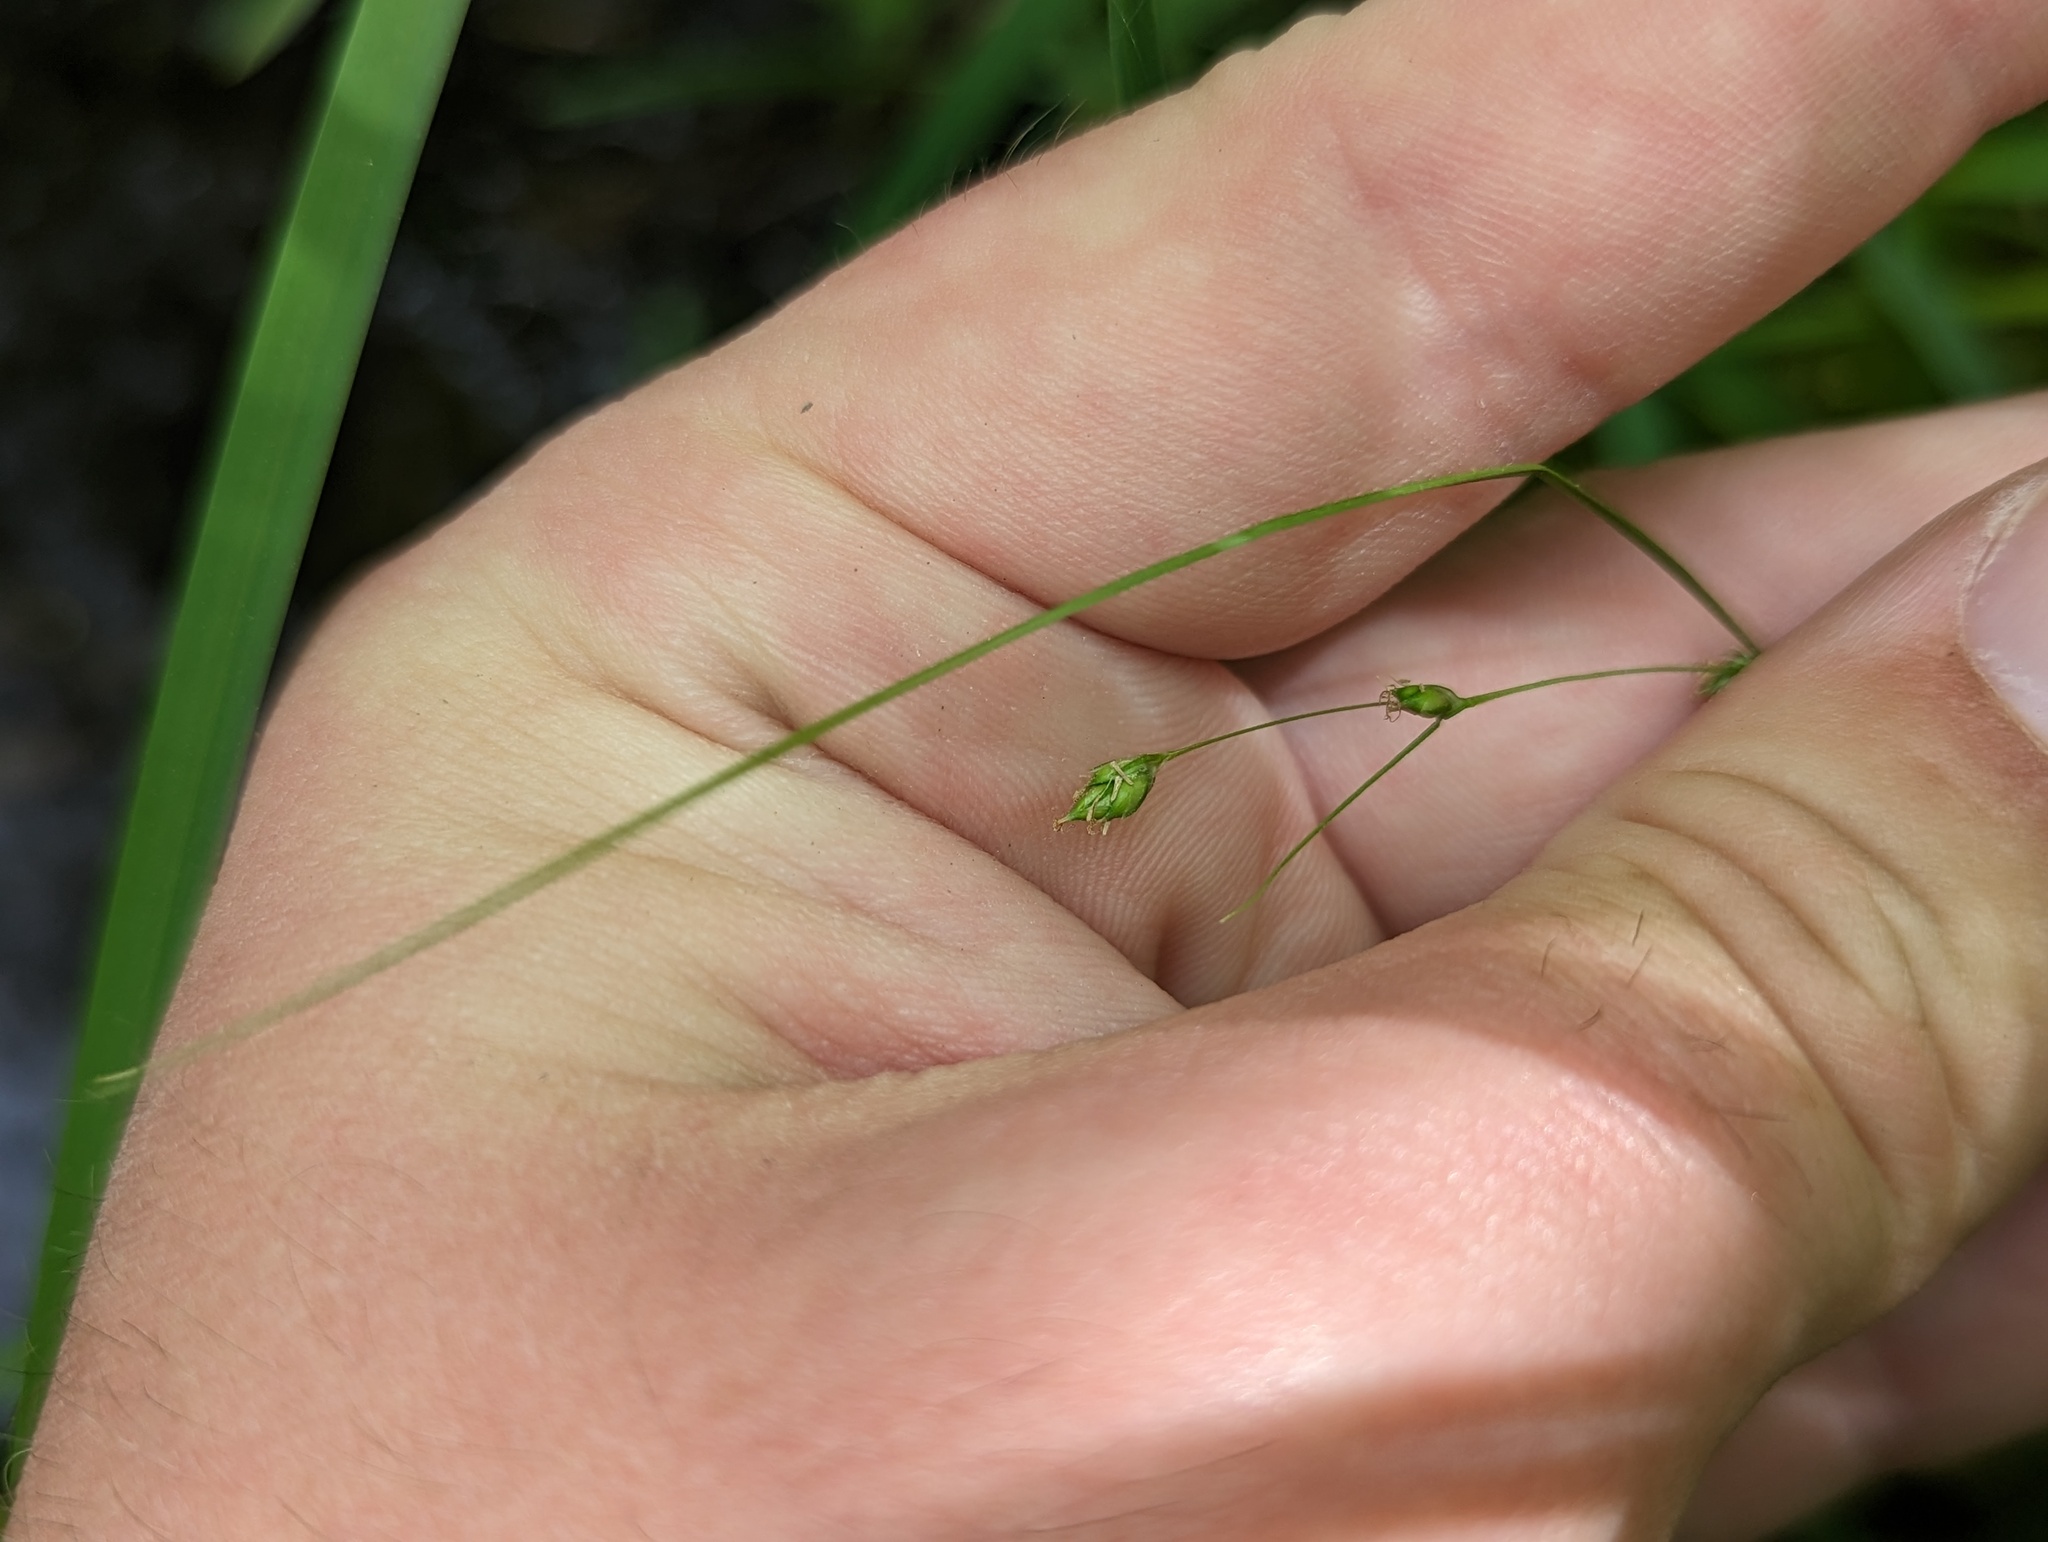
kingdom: Plantae
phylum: Tracheophyta
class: Liliopsida
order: Poales
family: Cyperaceae
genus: Carex
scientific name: Carex trisperma
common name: Three-seeded sedge
